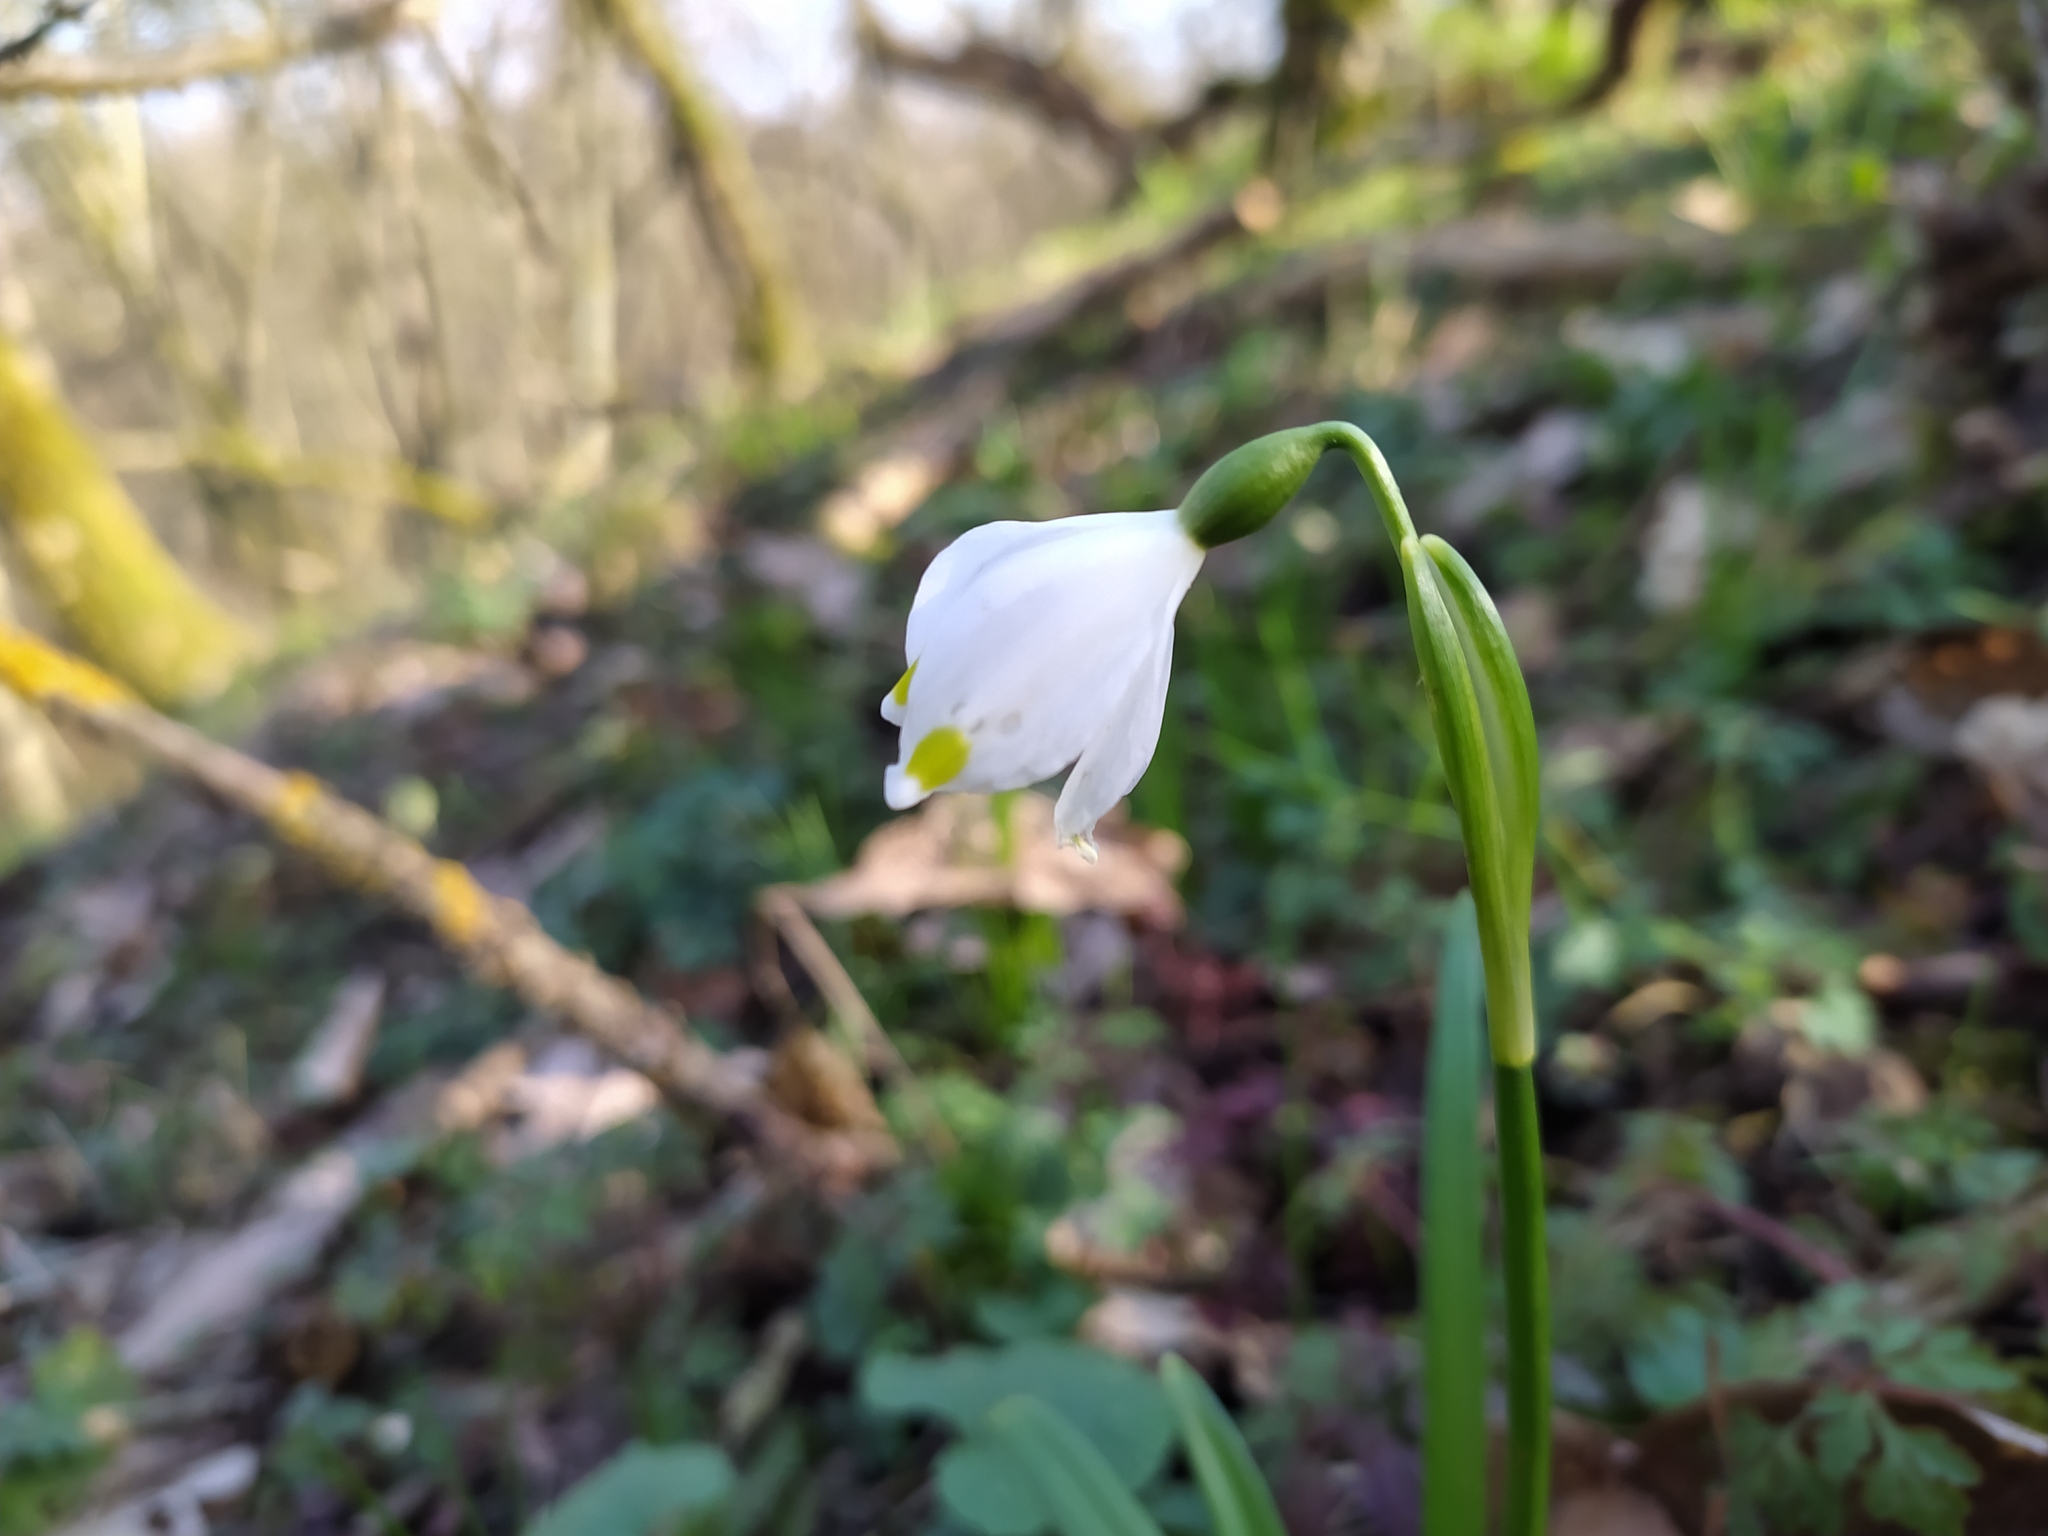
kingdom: Plantae
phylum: Tracheophyta
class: Liliopsida
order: Asparagales
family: Amaryllidaceae
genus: Leucojum
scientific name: Leucojum vernum
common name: Spring snowflake
